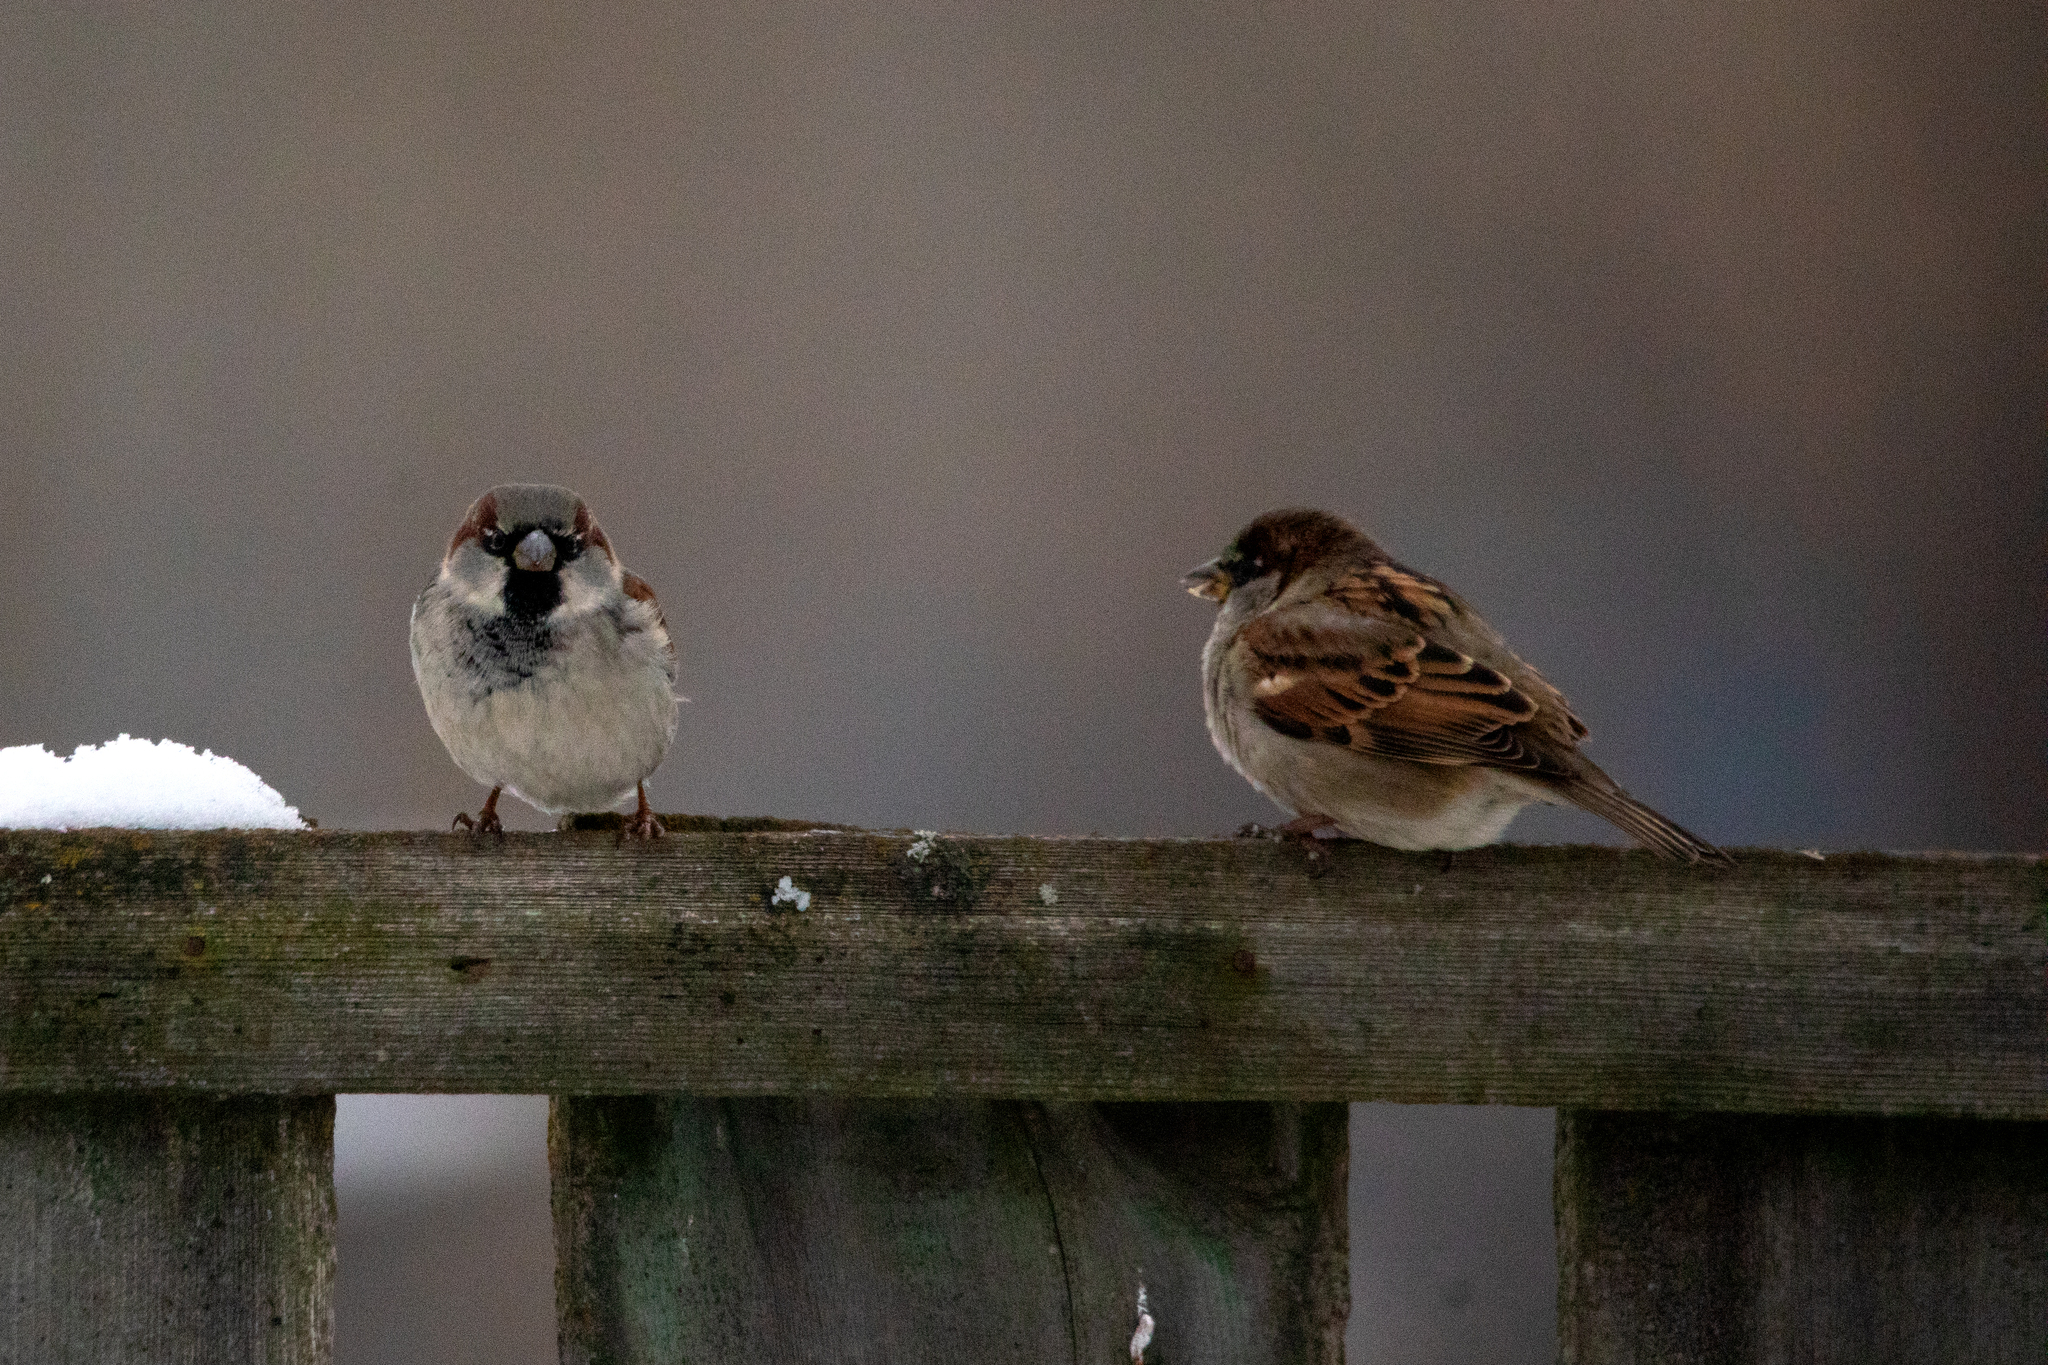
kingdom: Animalia
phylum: Chordata
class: Aves
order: Passeriformes
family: Passeridae
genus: Passer
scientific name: Passer domesticus
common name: House sparrow
